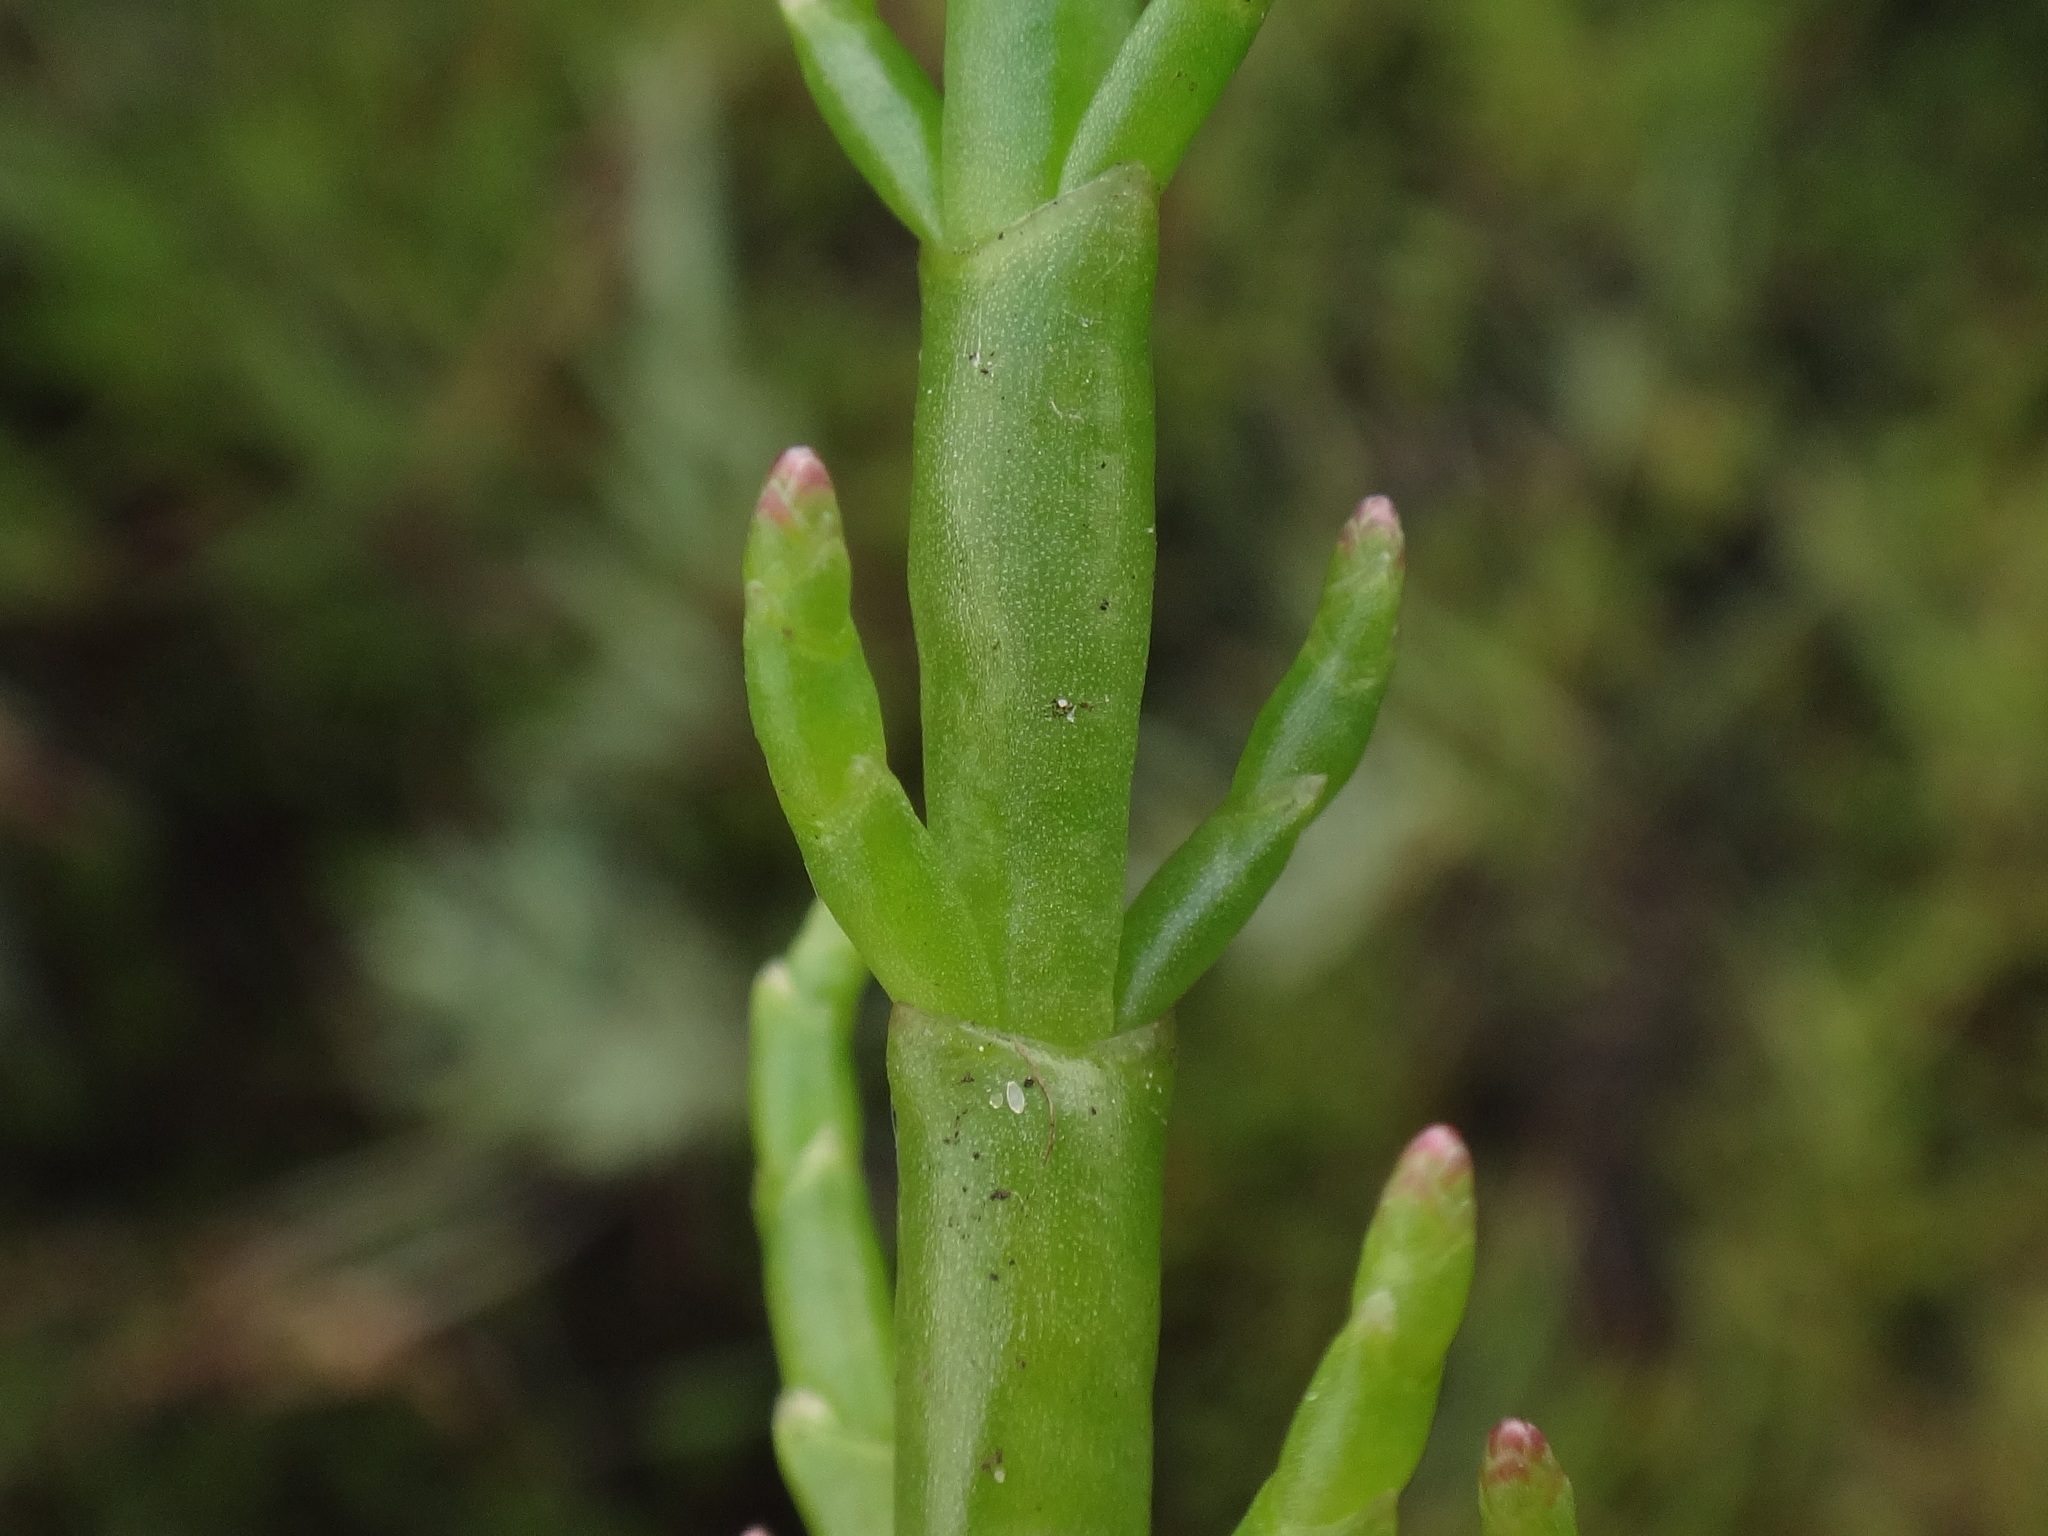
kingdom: Plantae
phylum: Tracheophyta
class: Magnoliopsida
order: Caryophyllales
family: Amaranthaceae
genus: Salicornia
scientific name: Salicornia europaea
